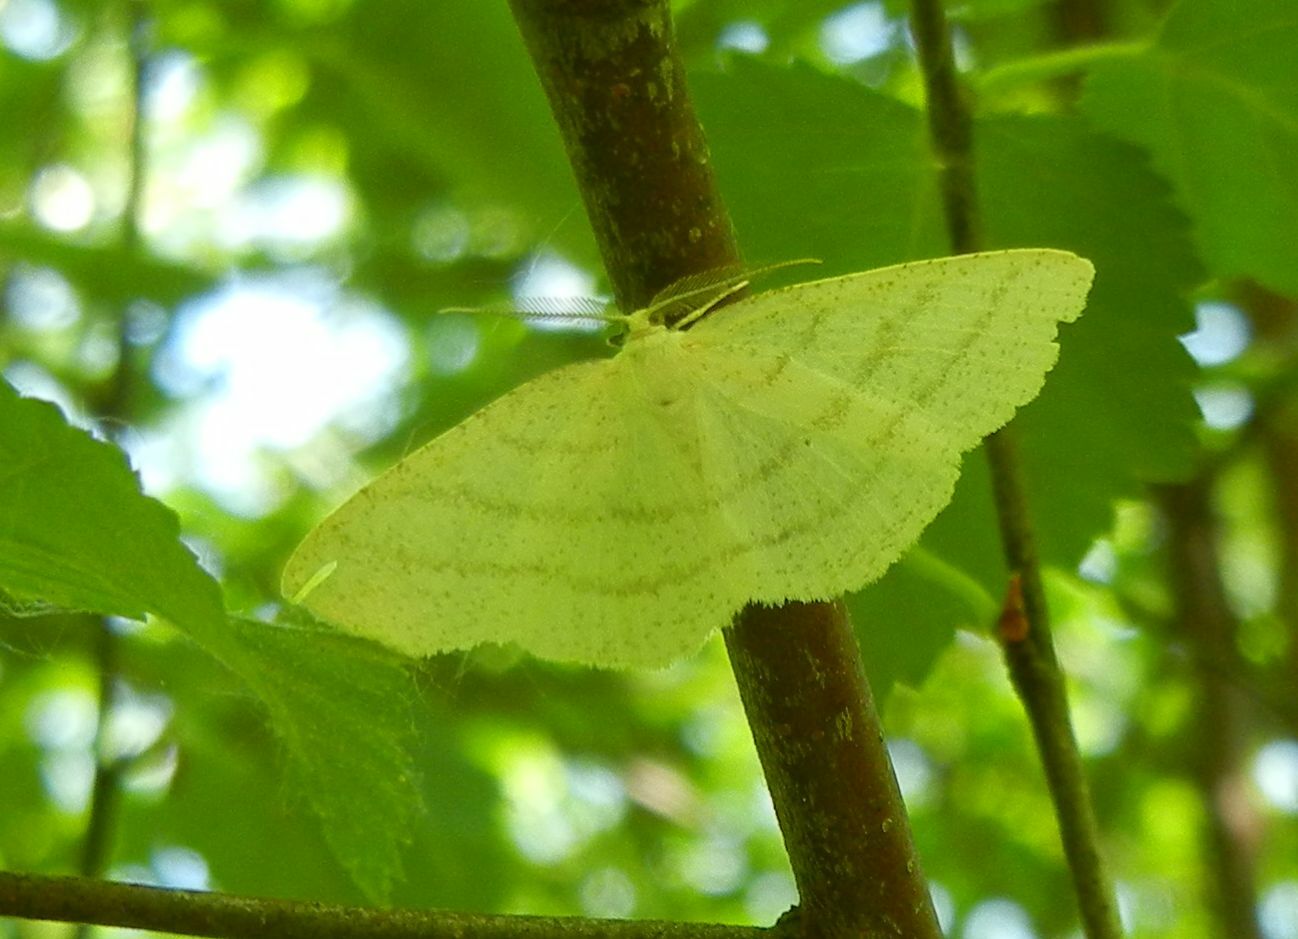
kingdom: Animalia
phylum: Arthropoda
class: Insecta
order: Lepidoptera
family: Geometridae
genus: Cabera
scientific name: Cabera pusaria
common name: Common white wave
